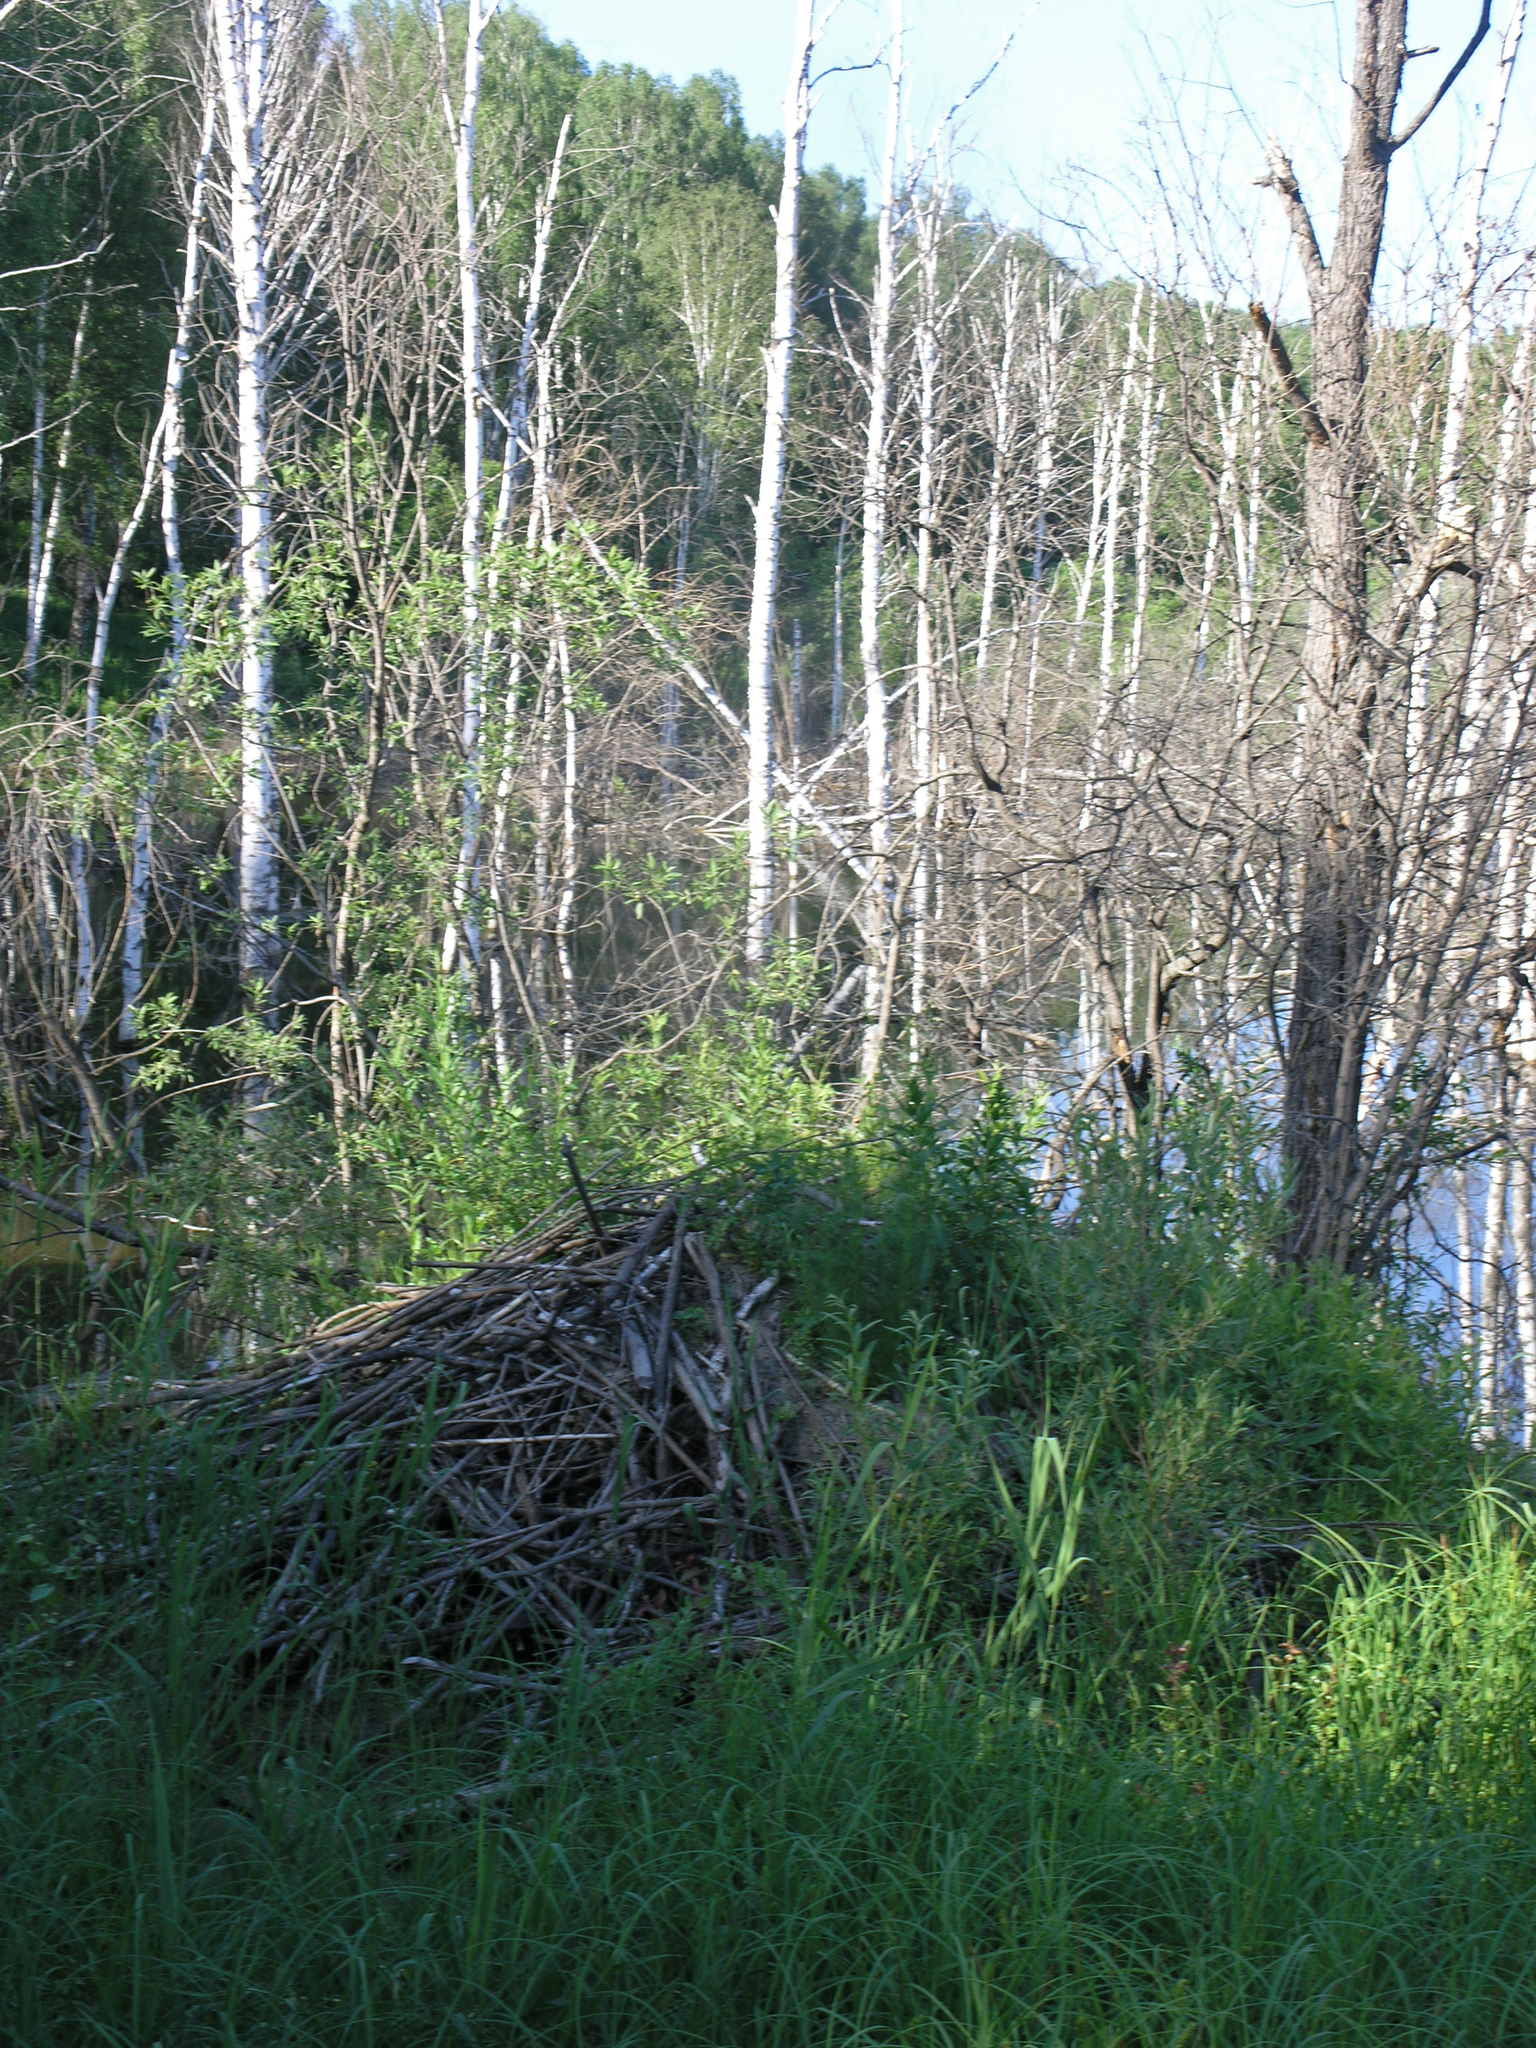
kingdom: Animalia
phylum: Chordata
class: Mammalia
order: Rodentia
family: Castoridae
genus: Castor
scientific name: Castor fiber
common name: Eurasian beaver
